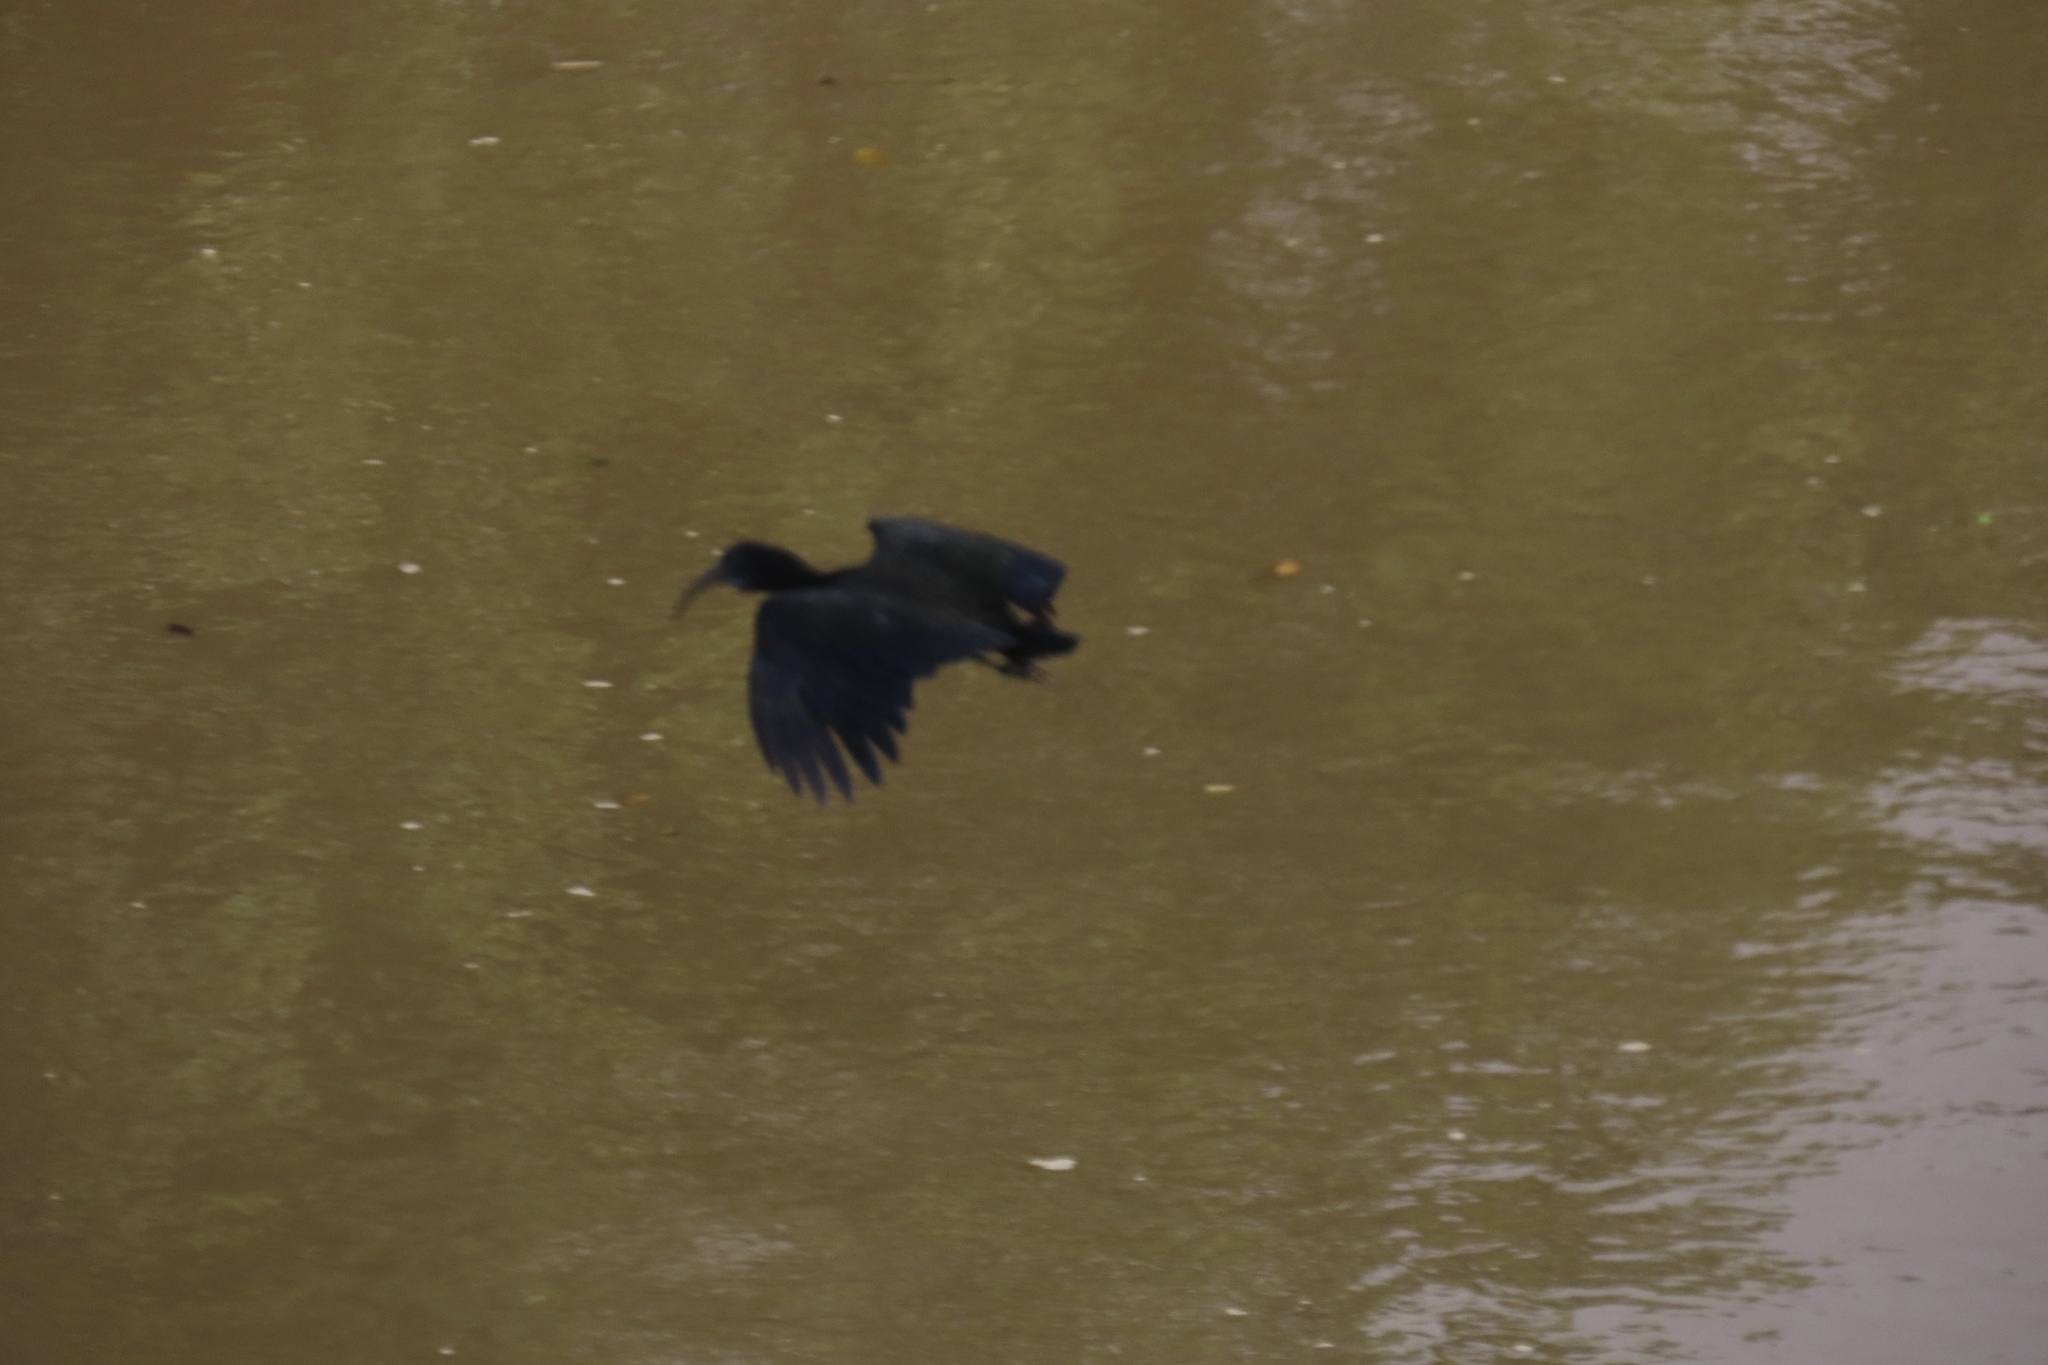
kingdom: Animalia
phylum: Chordata
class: Aves
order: Pelecaniformes
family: Threskiornithidae
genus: Mesembrinibis
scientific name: Mesembrinibis cayennensis
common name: Green ibis
